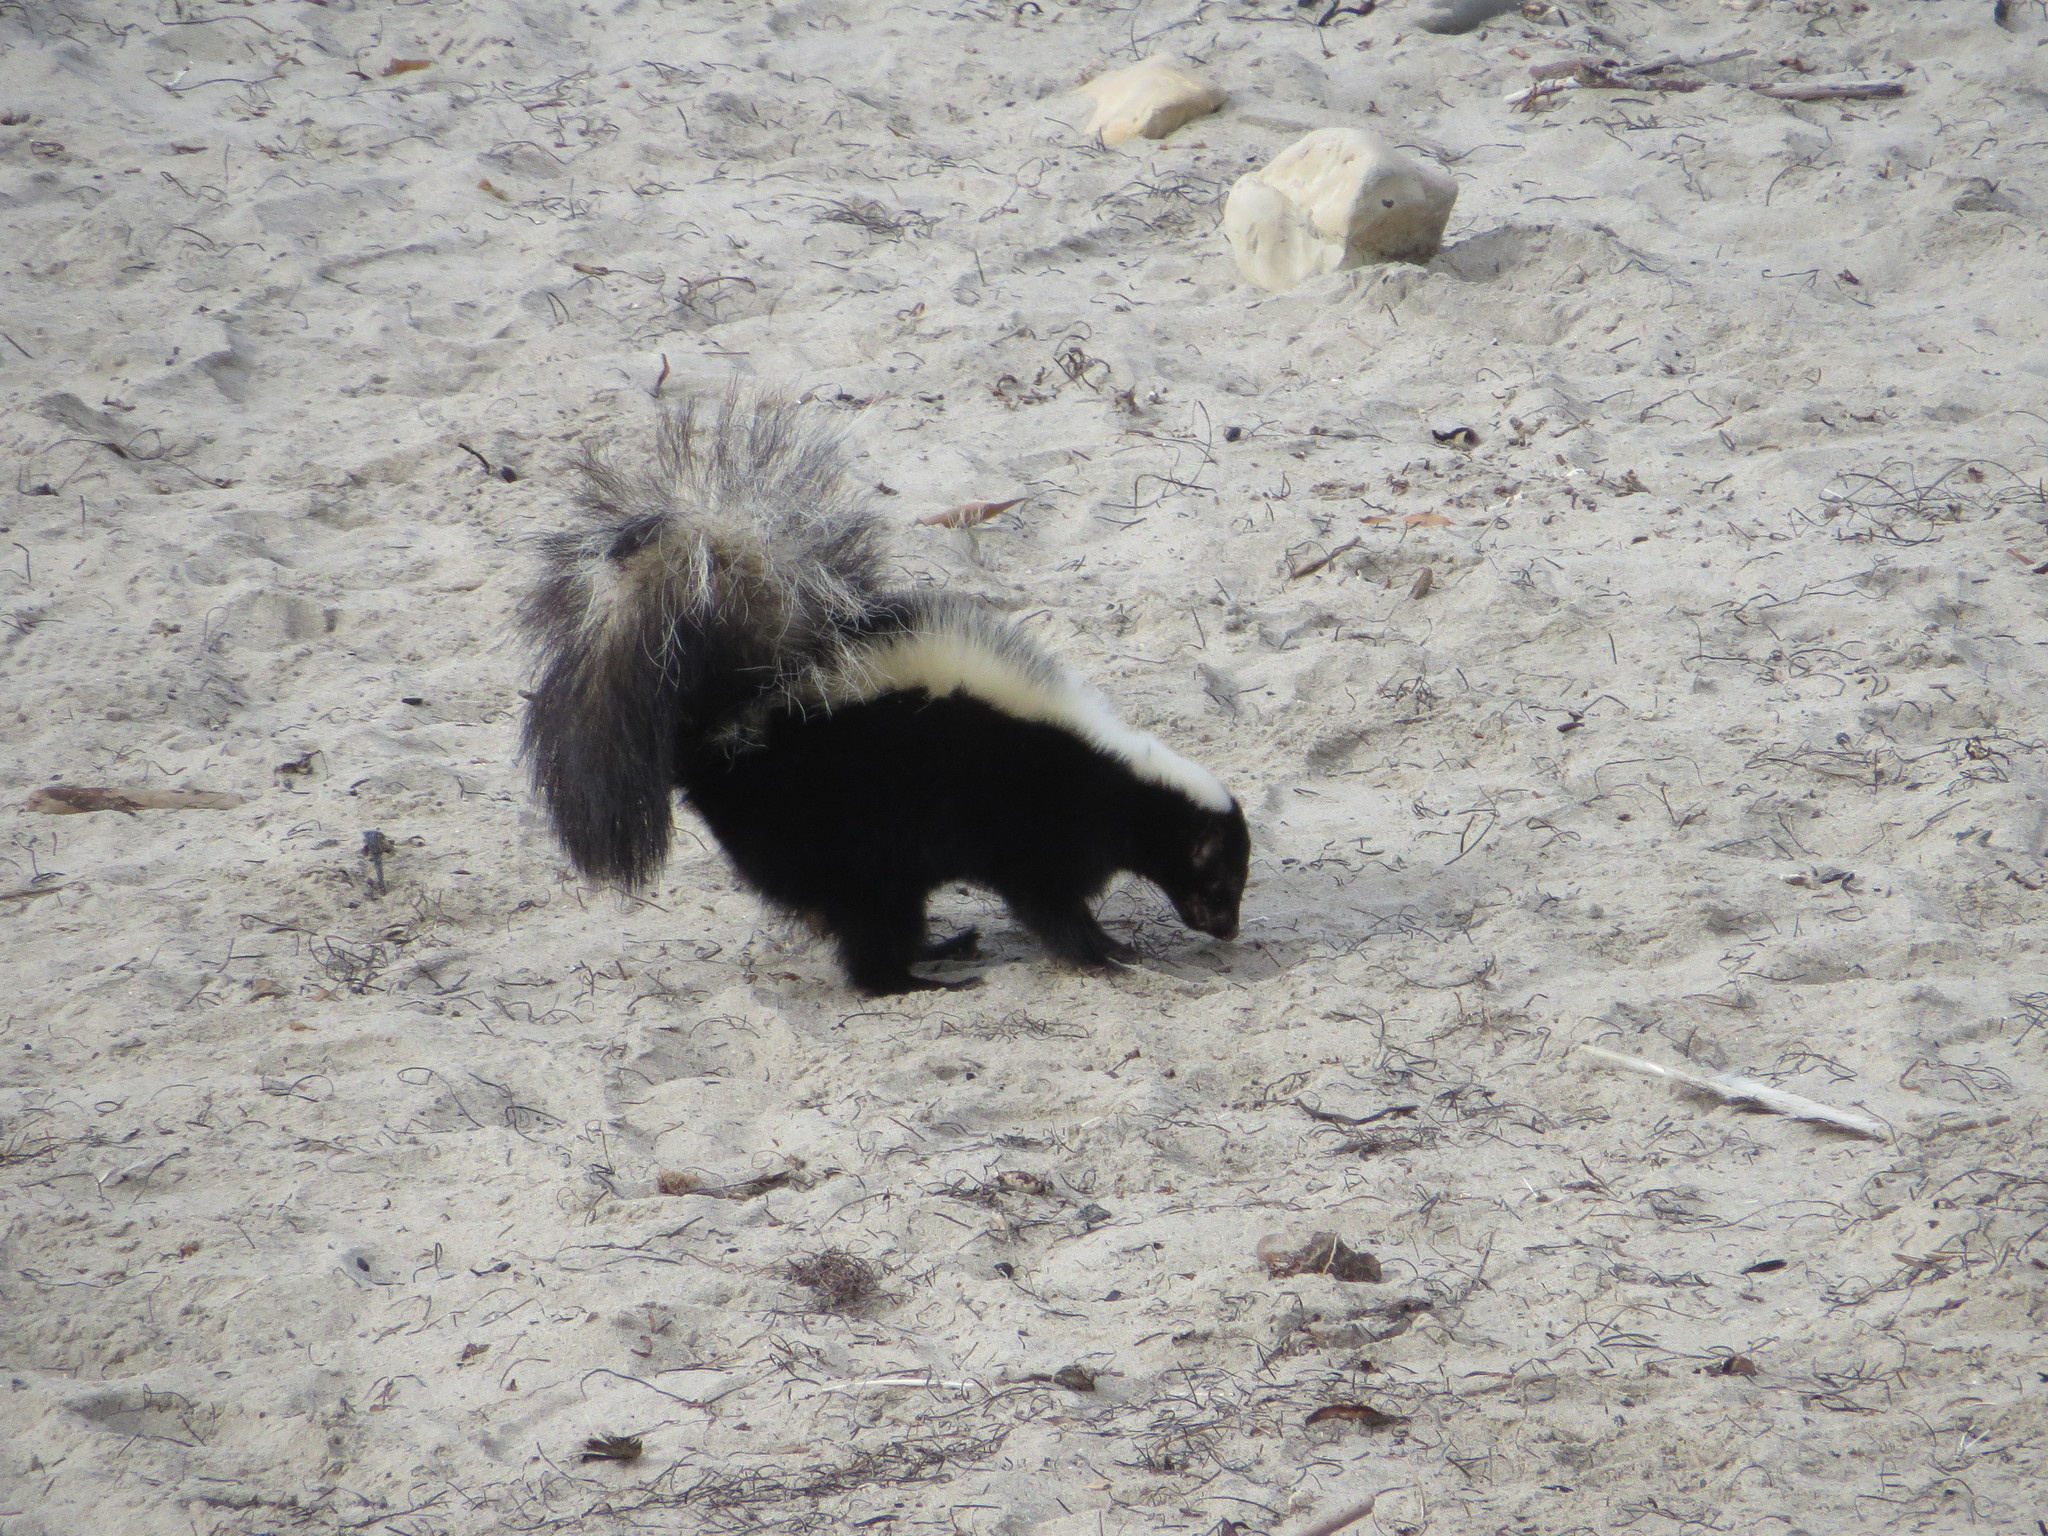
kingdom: Animalia
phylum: Chordata
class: Mammalia
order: Carnivora
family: Mephitidae
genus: Mephitis
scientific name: Mephitis mephitis
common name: Striped skunk
